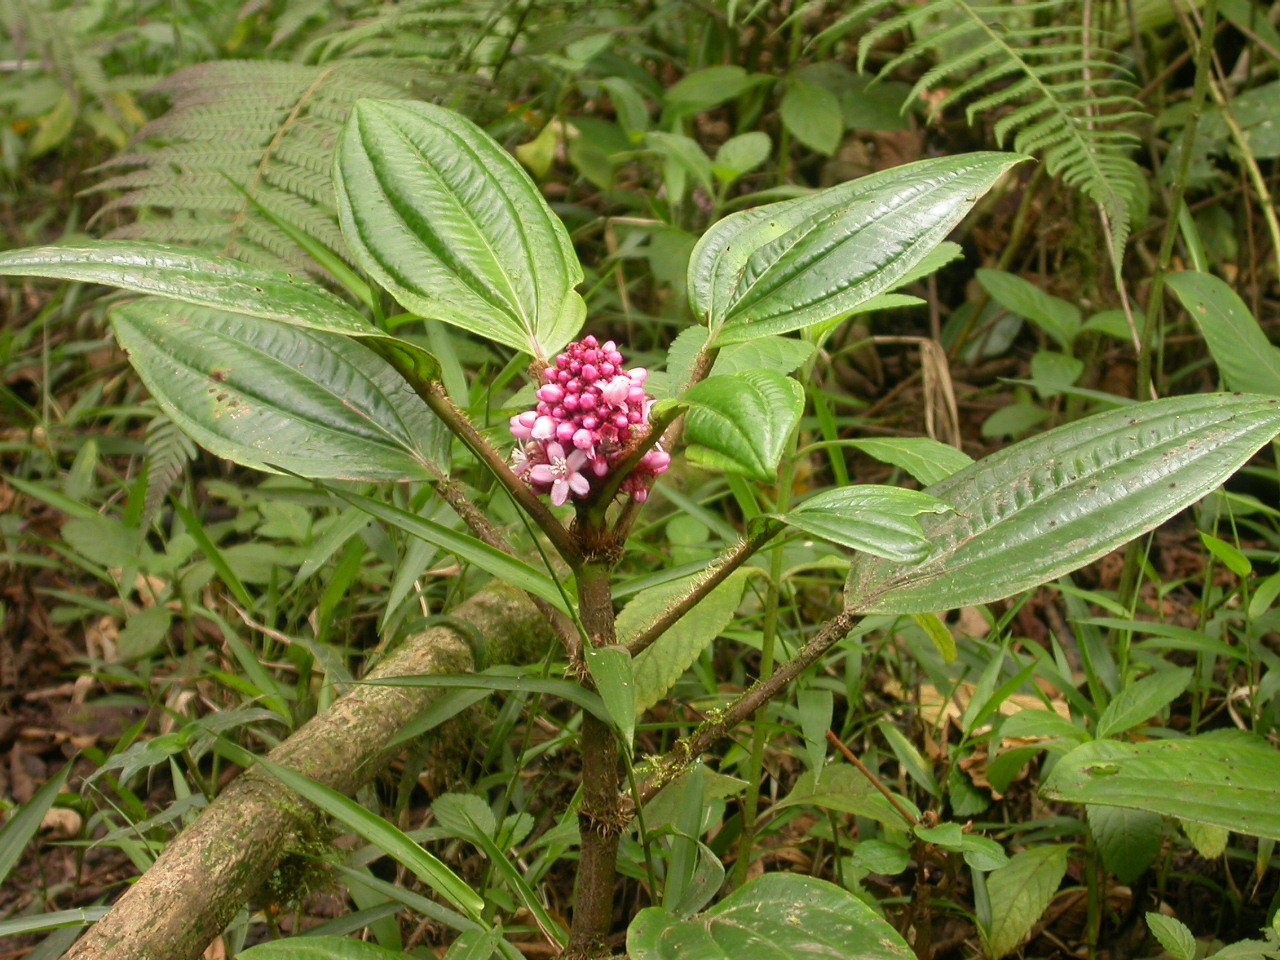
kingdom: Plantae
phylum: Tracheophyta
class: Magnoliopsida
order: Myrtales
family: Melastomataceae
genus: Miconia
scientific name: Miconia platyphylla
